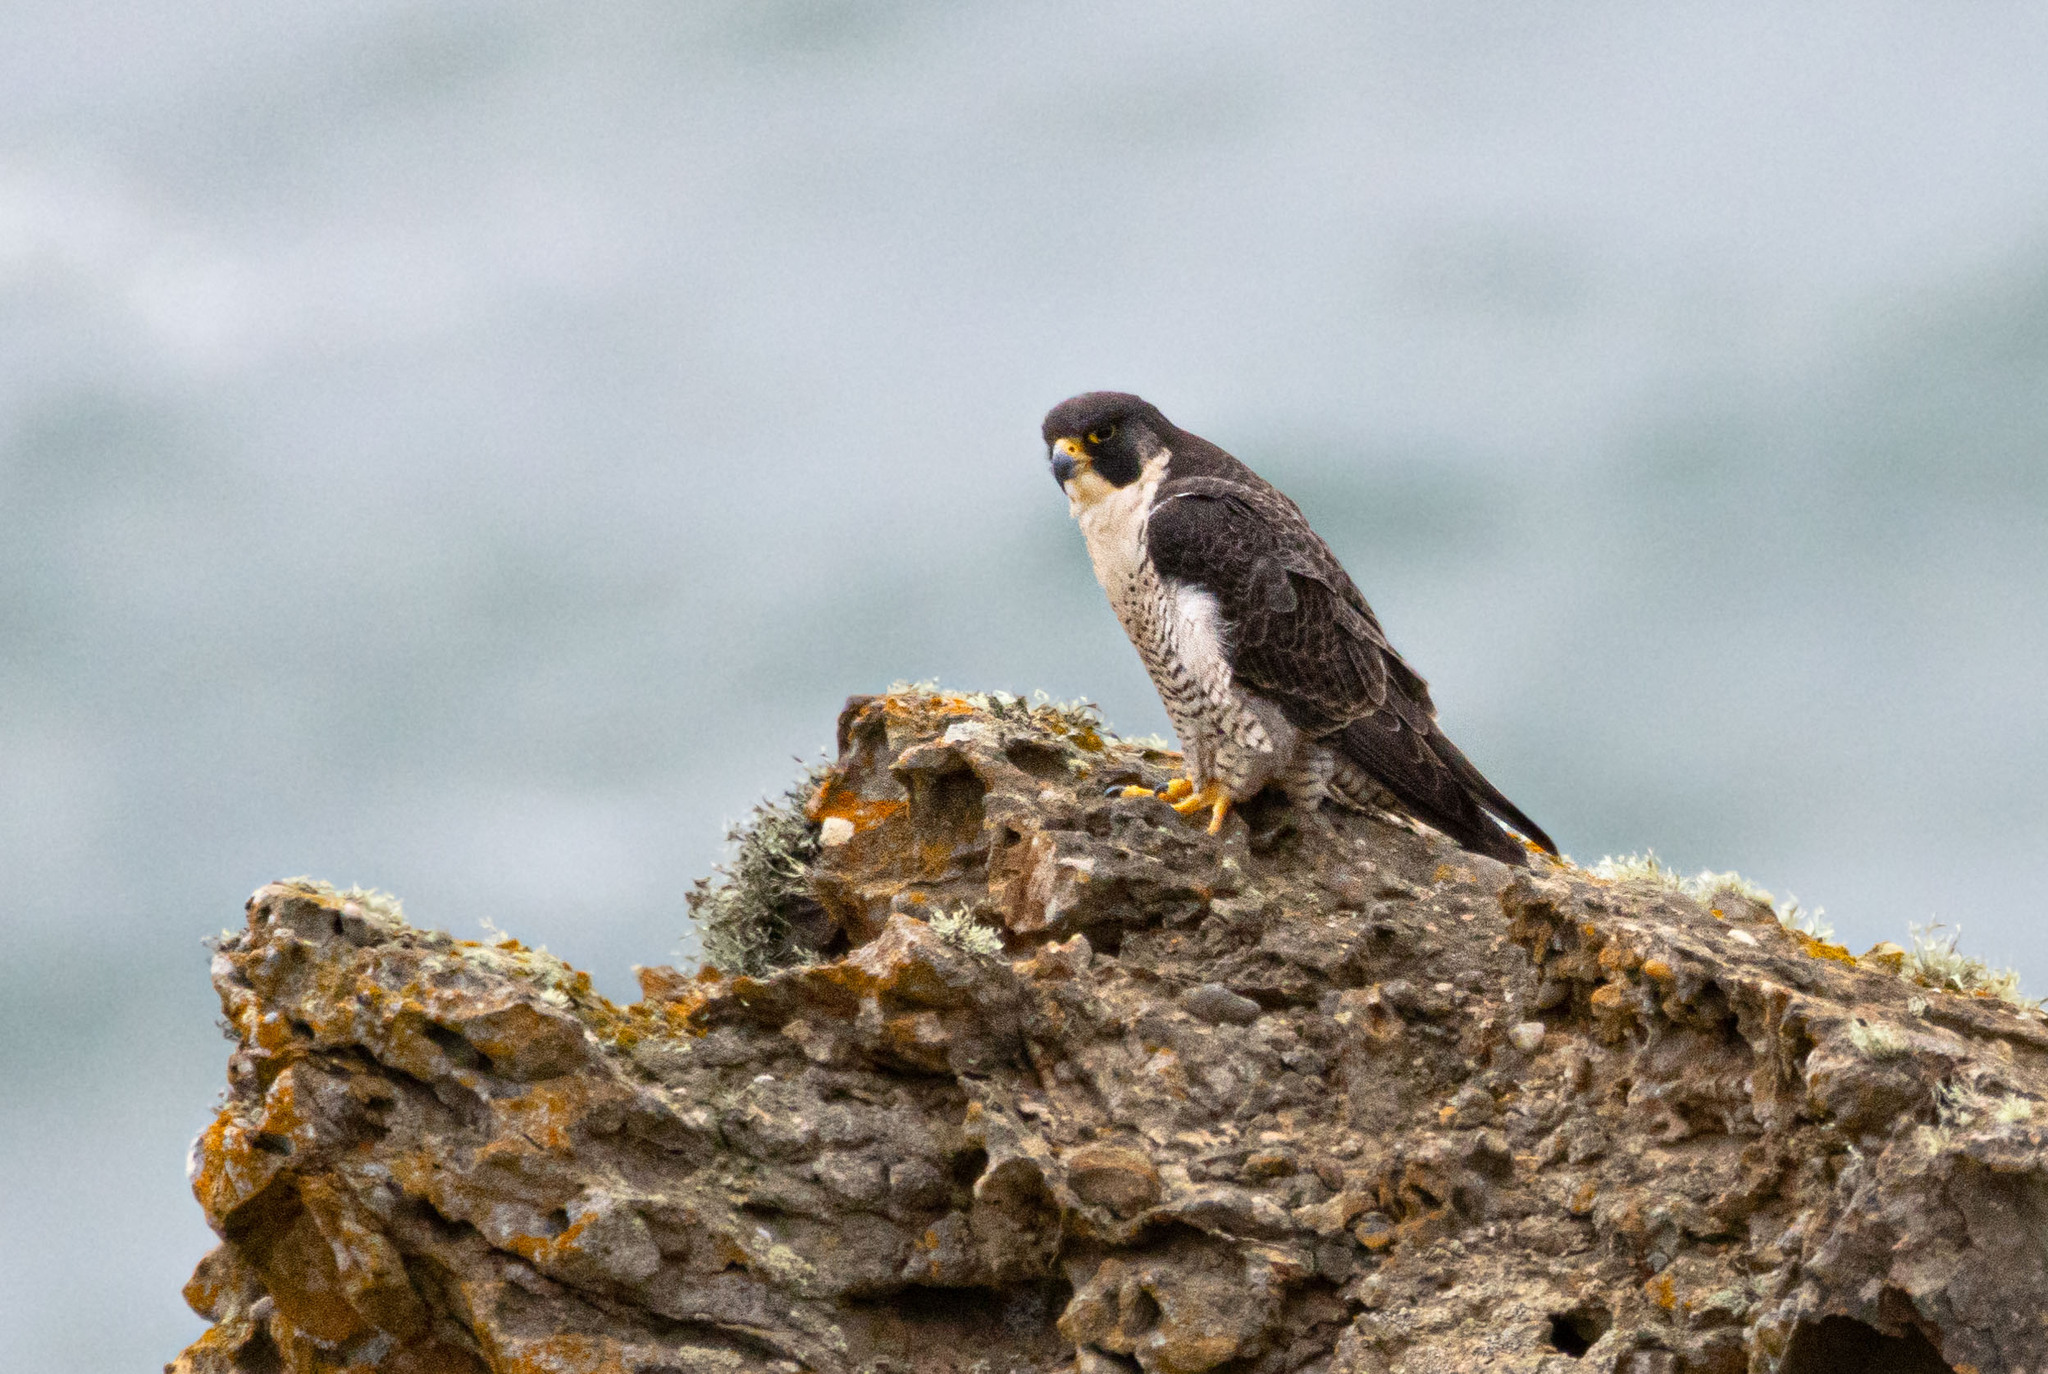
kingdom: Animalia
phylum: Chordata
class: Aves
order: Falconiformes
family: Falconidae
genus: Falco
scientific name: Falco peregrinus
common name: Peregrine falcon
